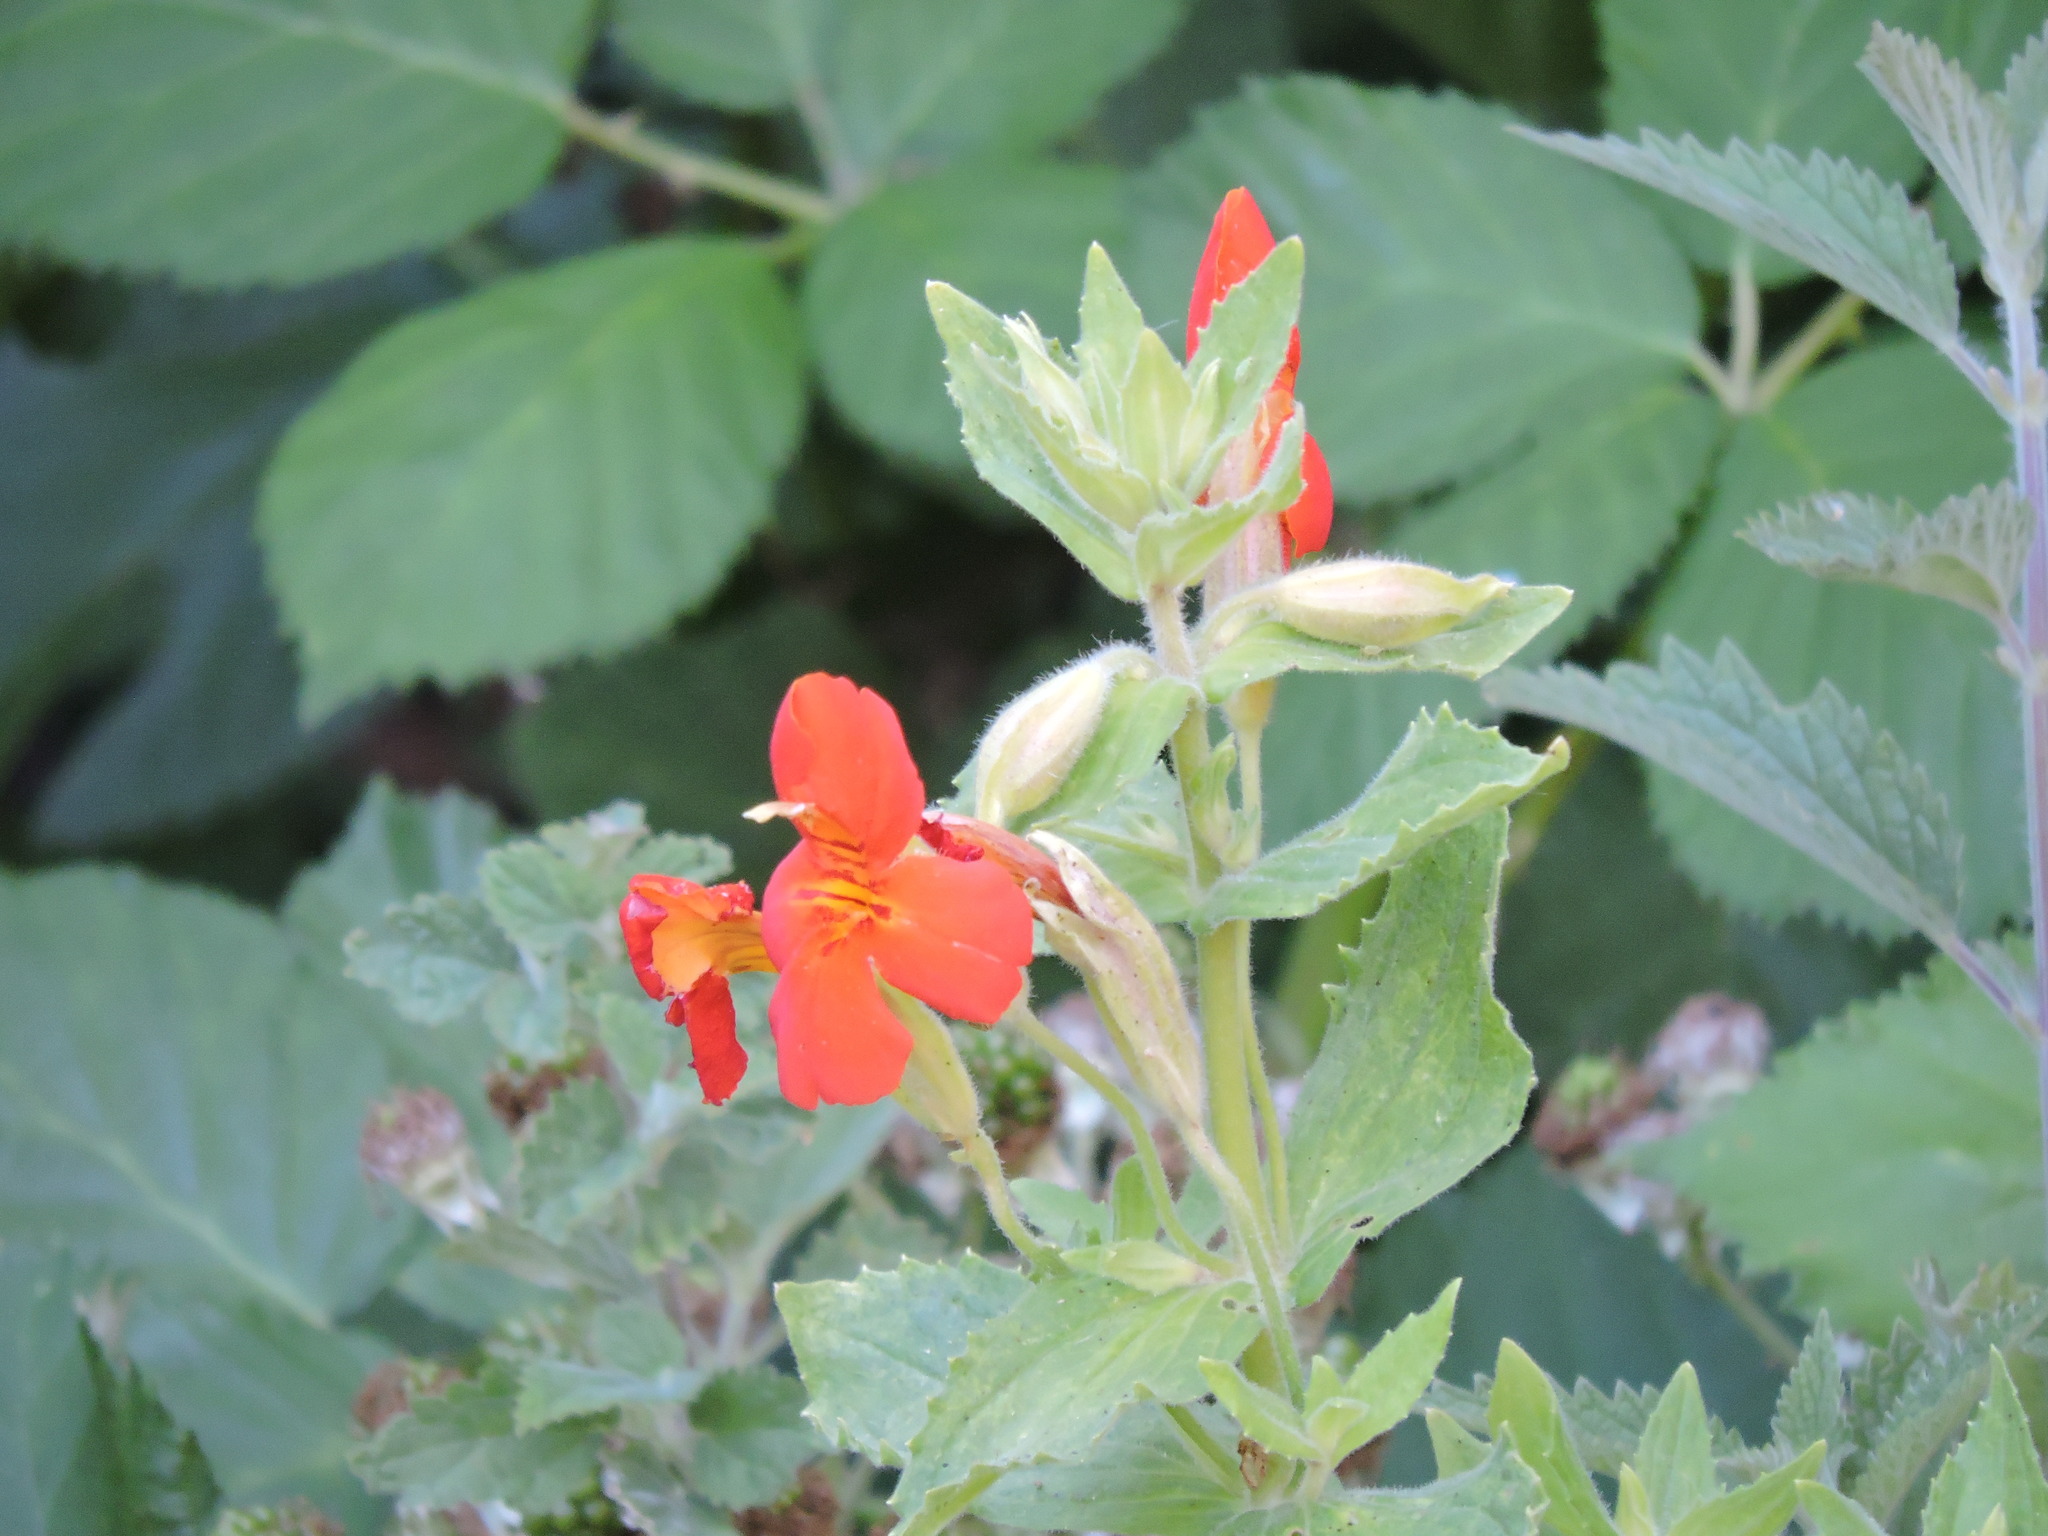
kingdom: Plantae
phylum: Tracheophyta
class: Magnoliopsida
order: Lamiales
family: Phrymaceae
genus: Erythranthe
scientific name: Erythranthe cardinalis
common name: Scarlet monkey-flower
